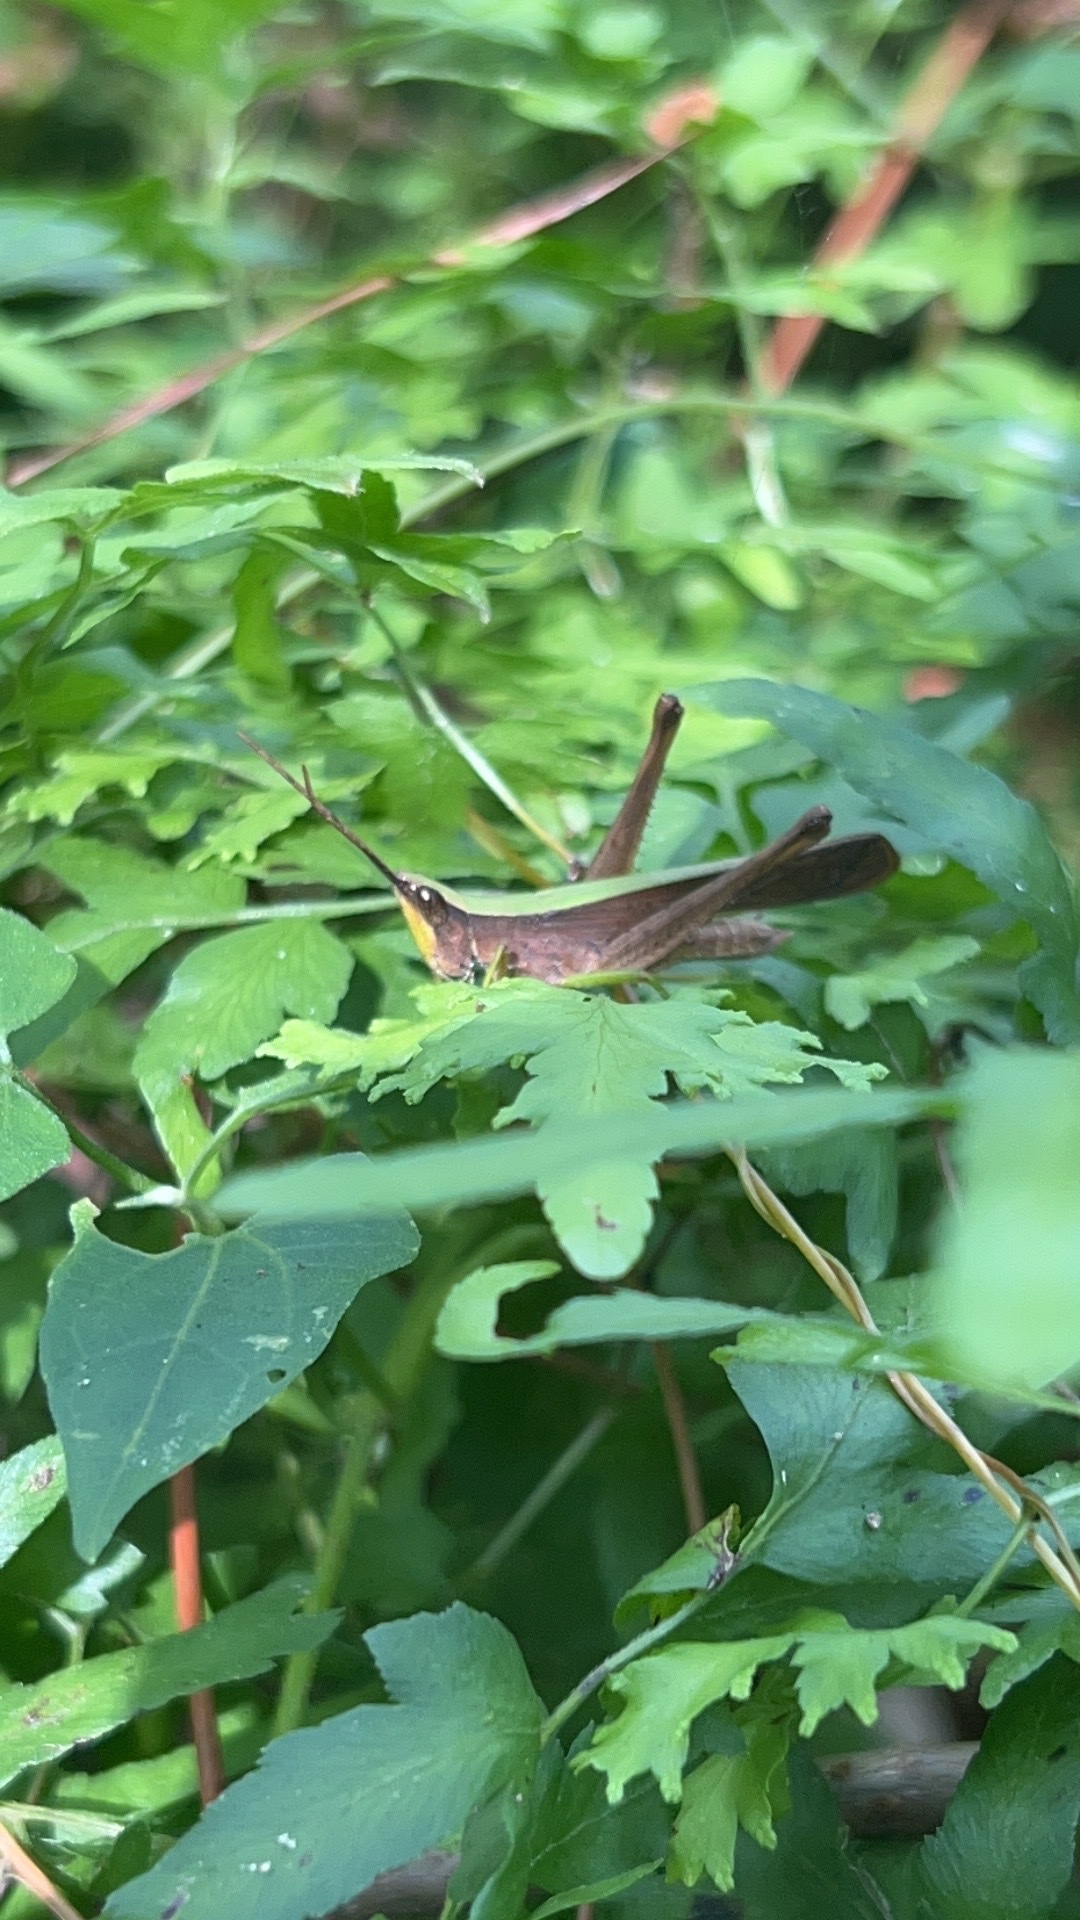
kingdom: Animalia
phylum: Arthropoda
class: Insecta
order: Orthoptera
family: Acrididae
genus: Metaleptea
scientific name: Metaleptea brevicornis
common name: Clipped-wing grasshopper
